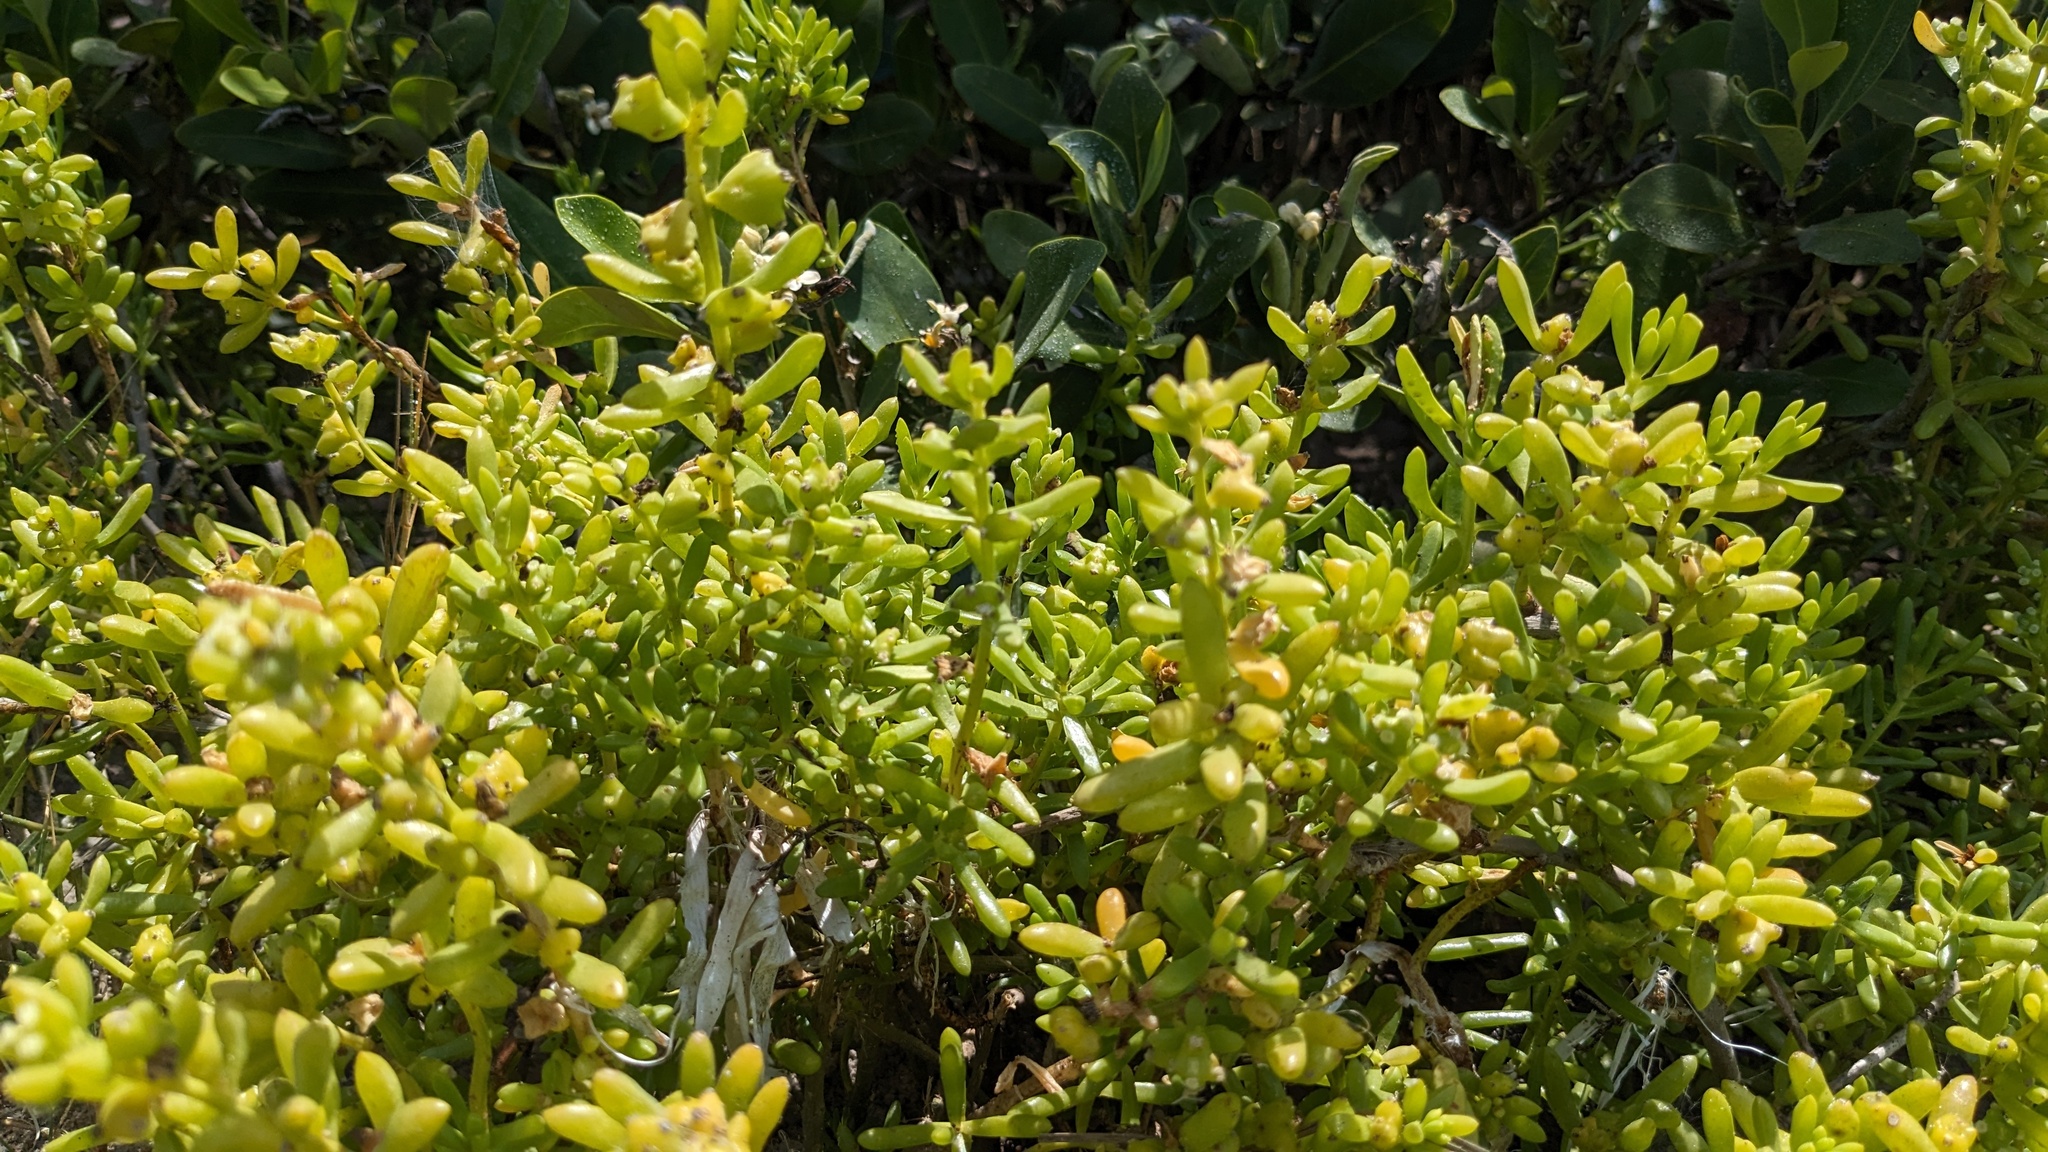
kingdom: Plantae
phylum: Tracheophyta
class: Magnoliopsida
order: Brassicales
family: Bataceae
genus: Batis
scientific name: Batis maritima
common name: Turtleweed
